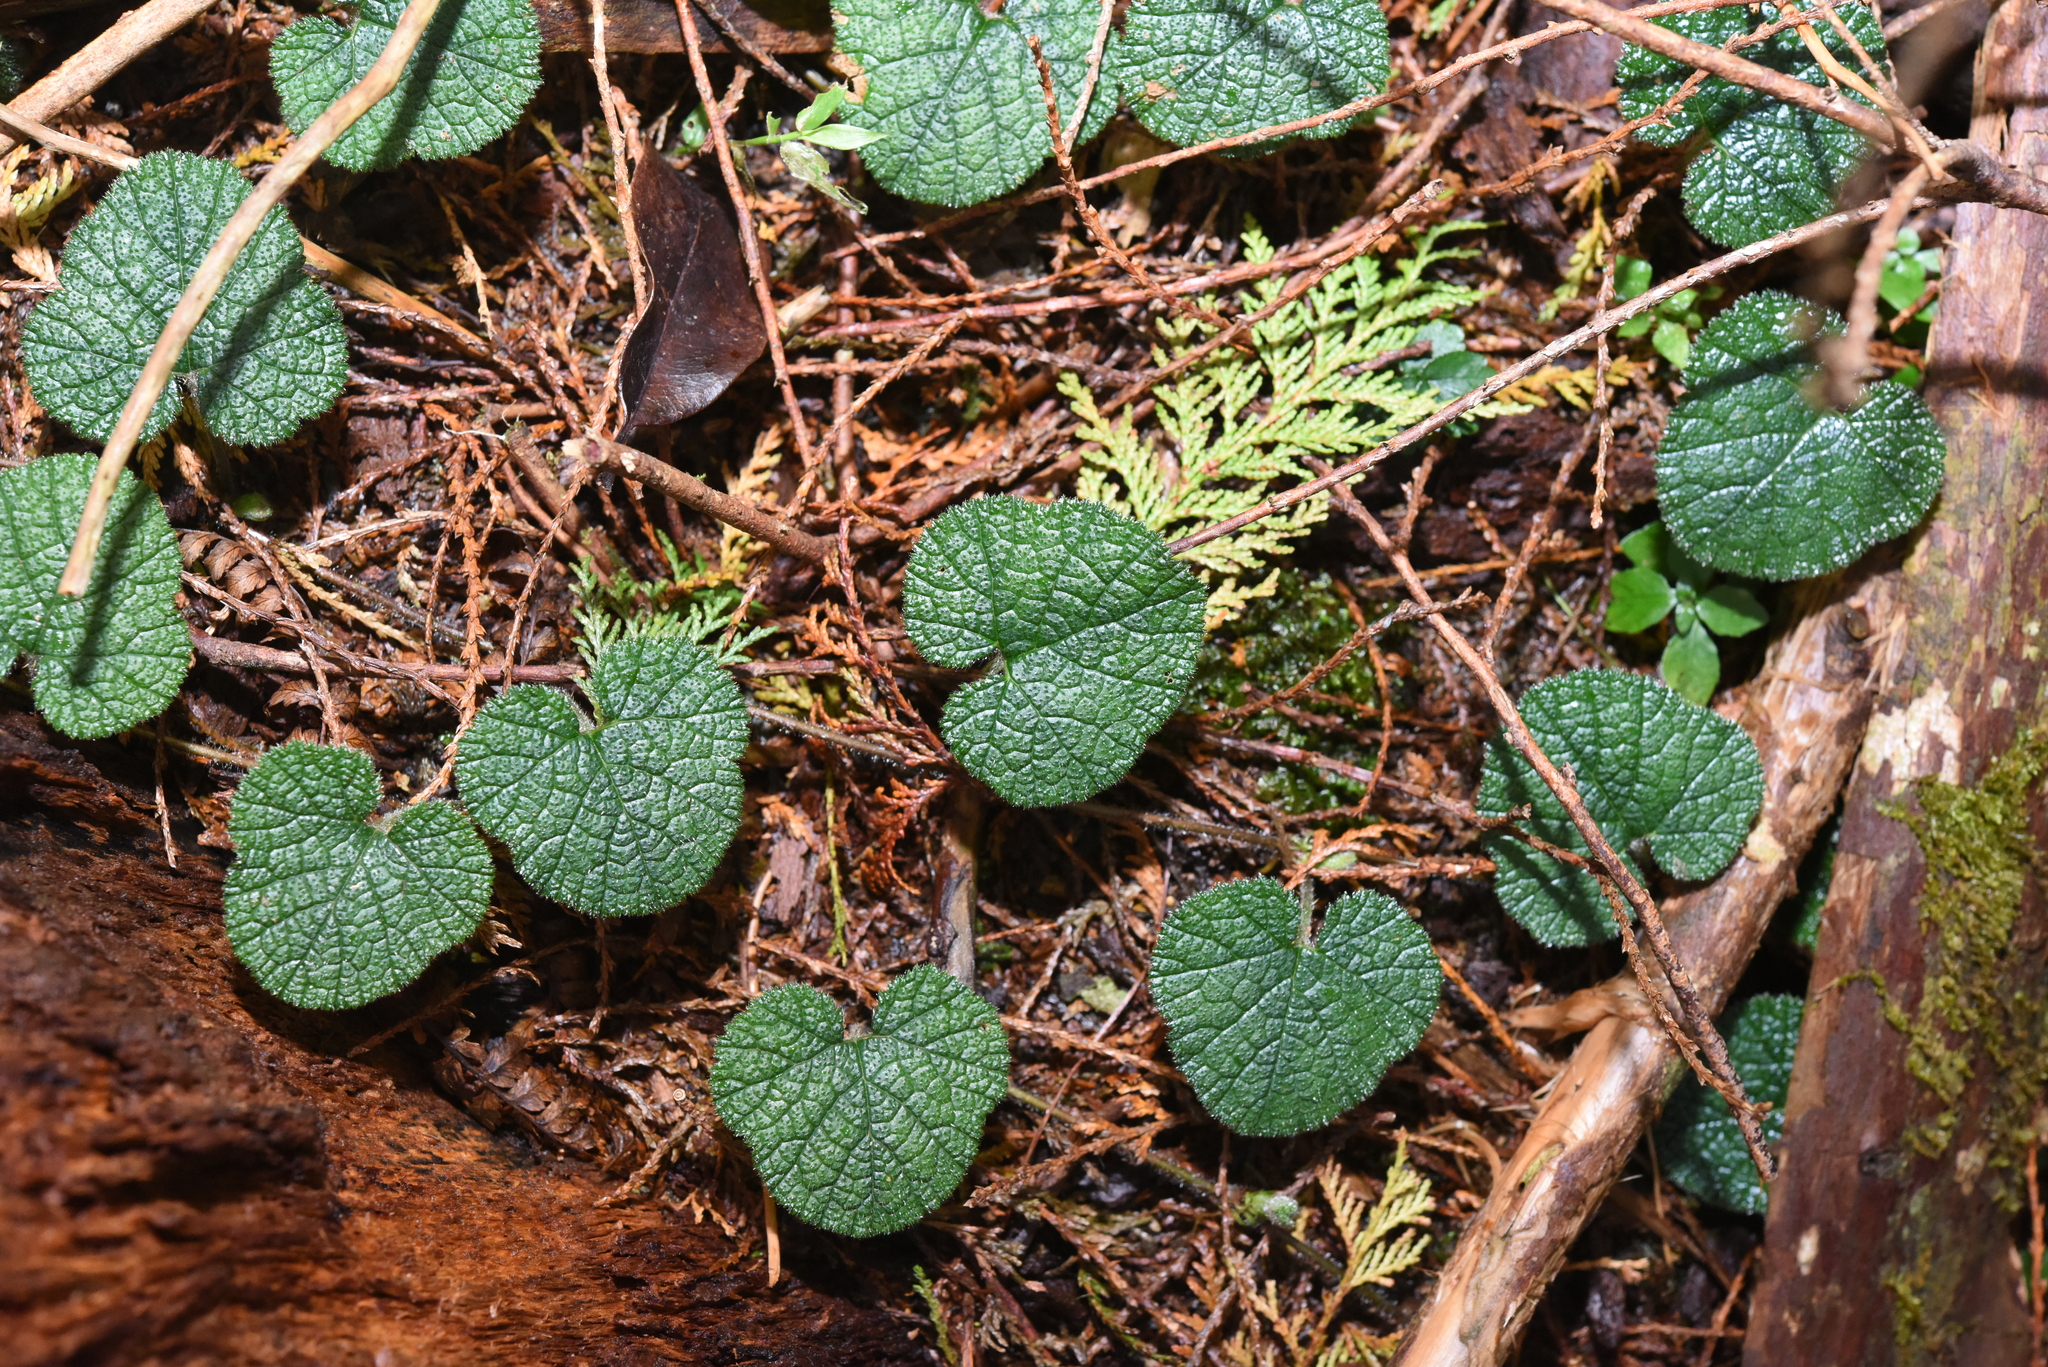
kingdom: Plantae
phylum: Tracheophyta
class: Magnoliopsida
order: Rosales
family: Rosaceae
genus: Rubus
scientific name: Rubus pectinellus
